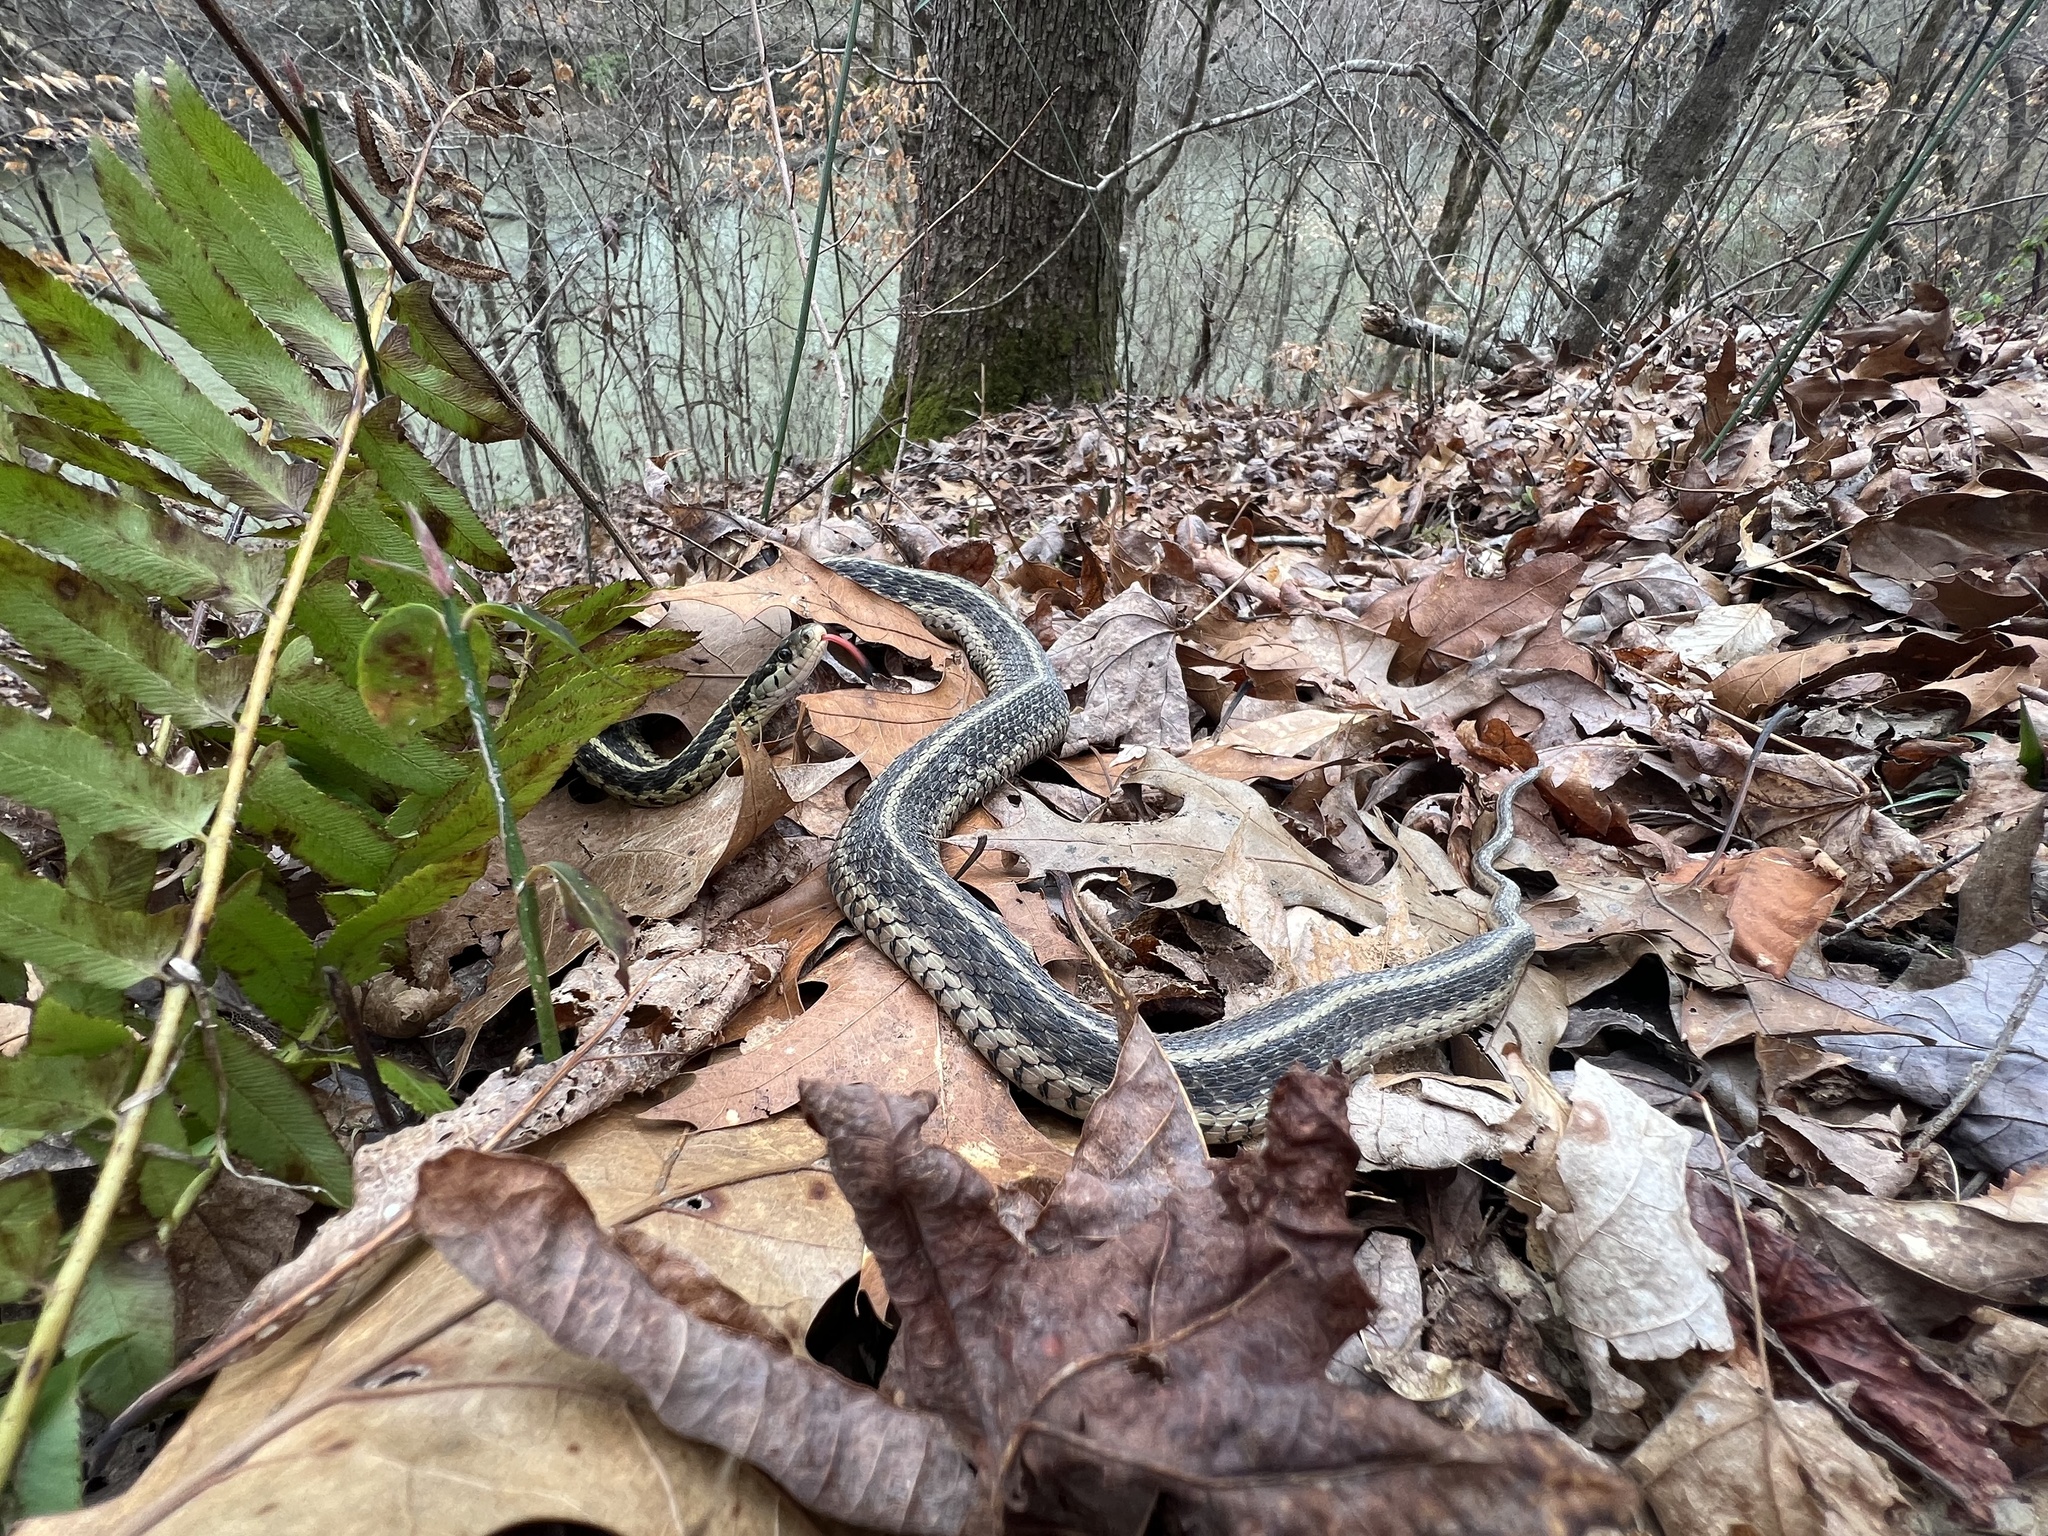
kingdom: Animalia
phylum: Chordata
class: Squamata
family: Colubridae
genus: Thamnophis
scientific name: Thamnophis sirtalis
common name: Common garter snake
